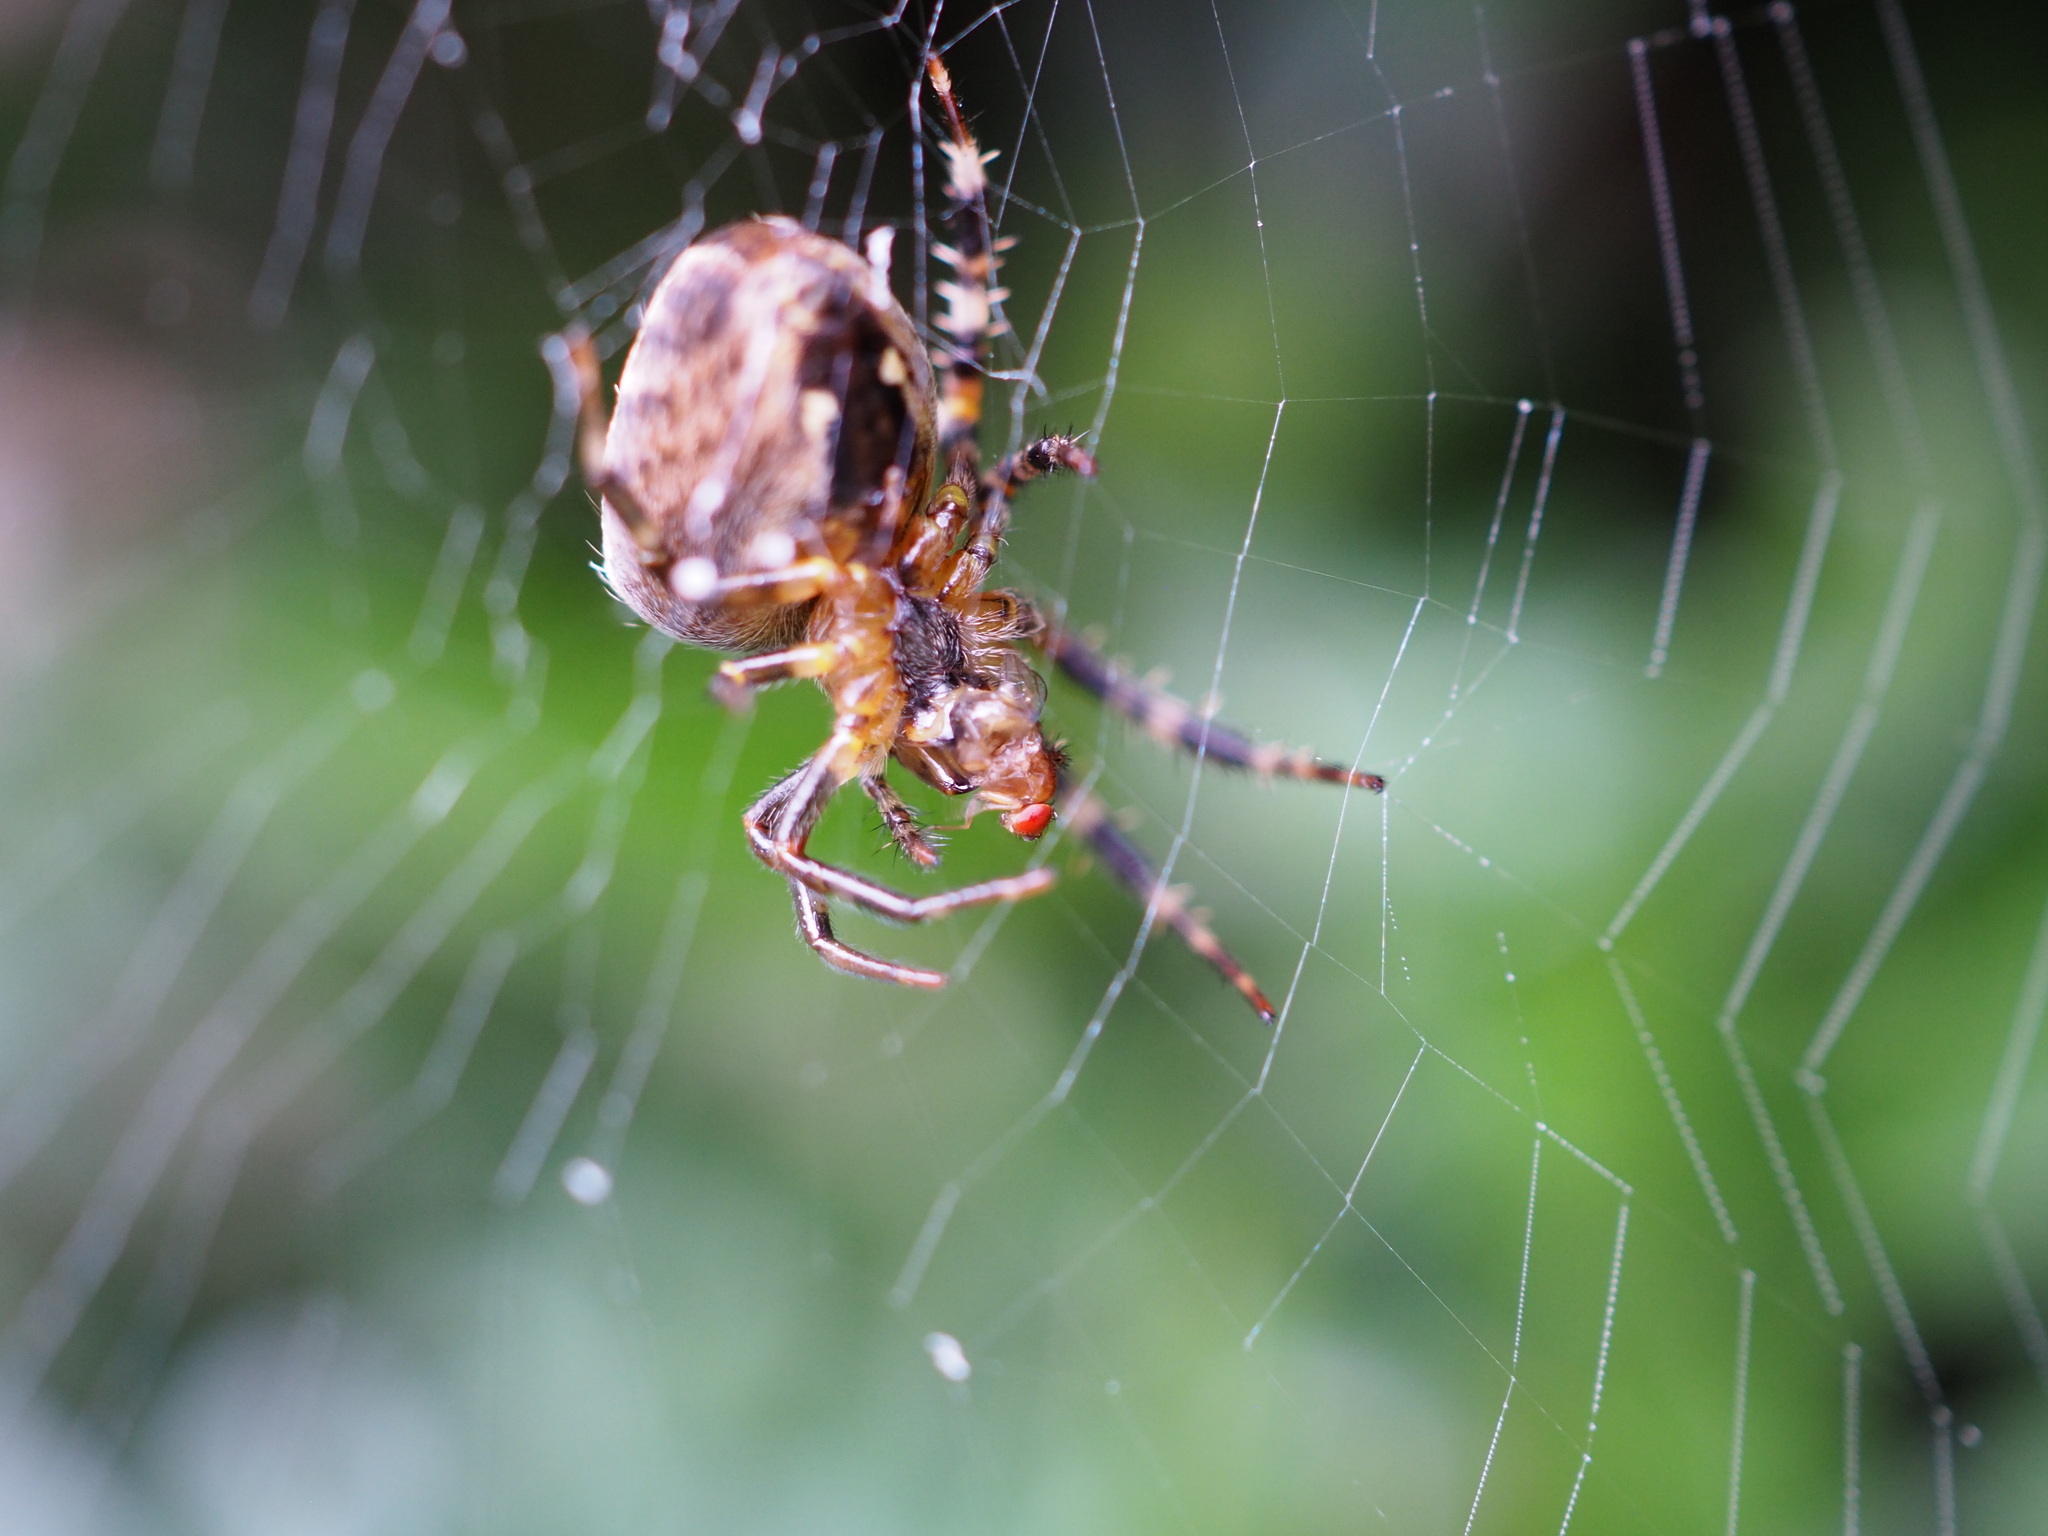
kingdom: Animalia
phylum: Arthropoda
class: Arachnida
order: Araneae
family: Araneidae
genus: Araneus
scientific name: Araneus diadematus
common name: Cross orbweaver
